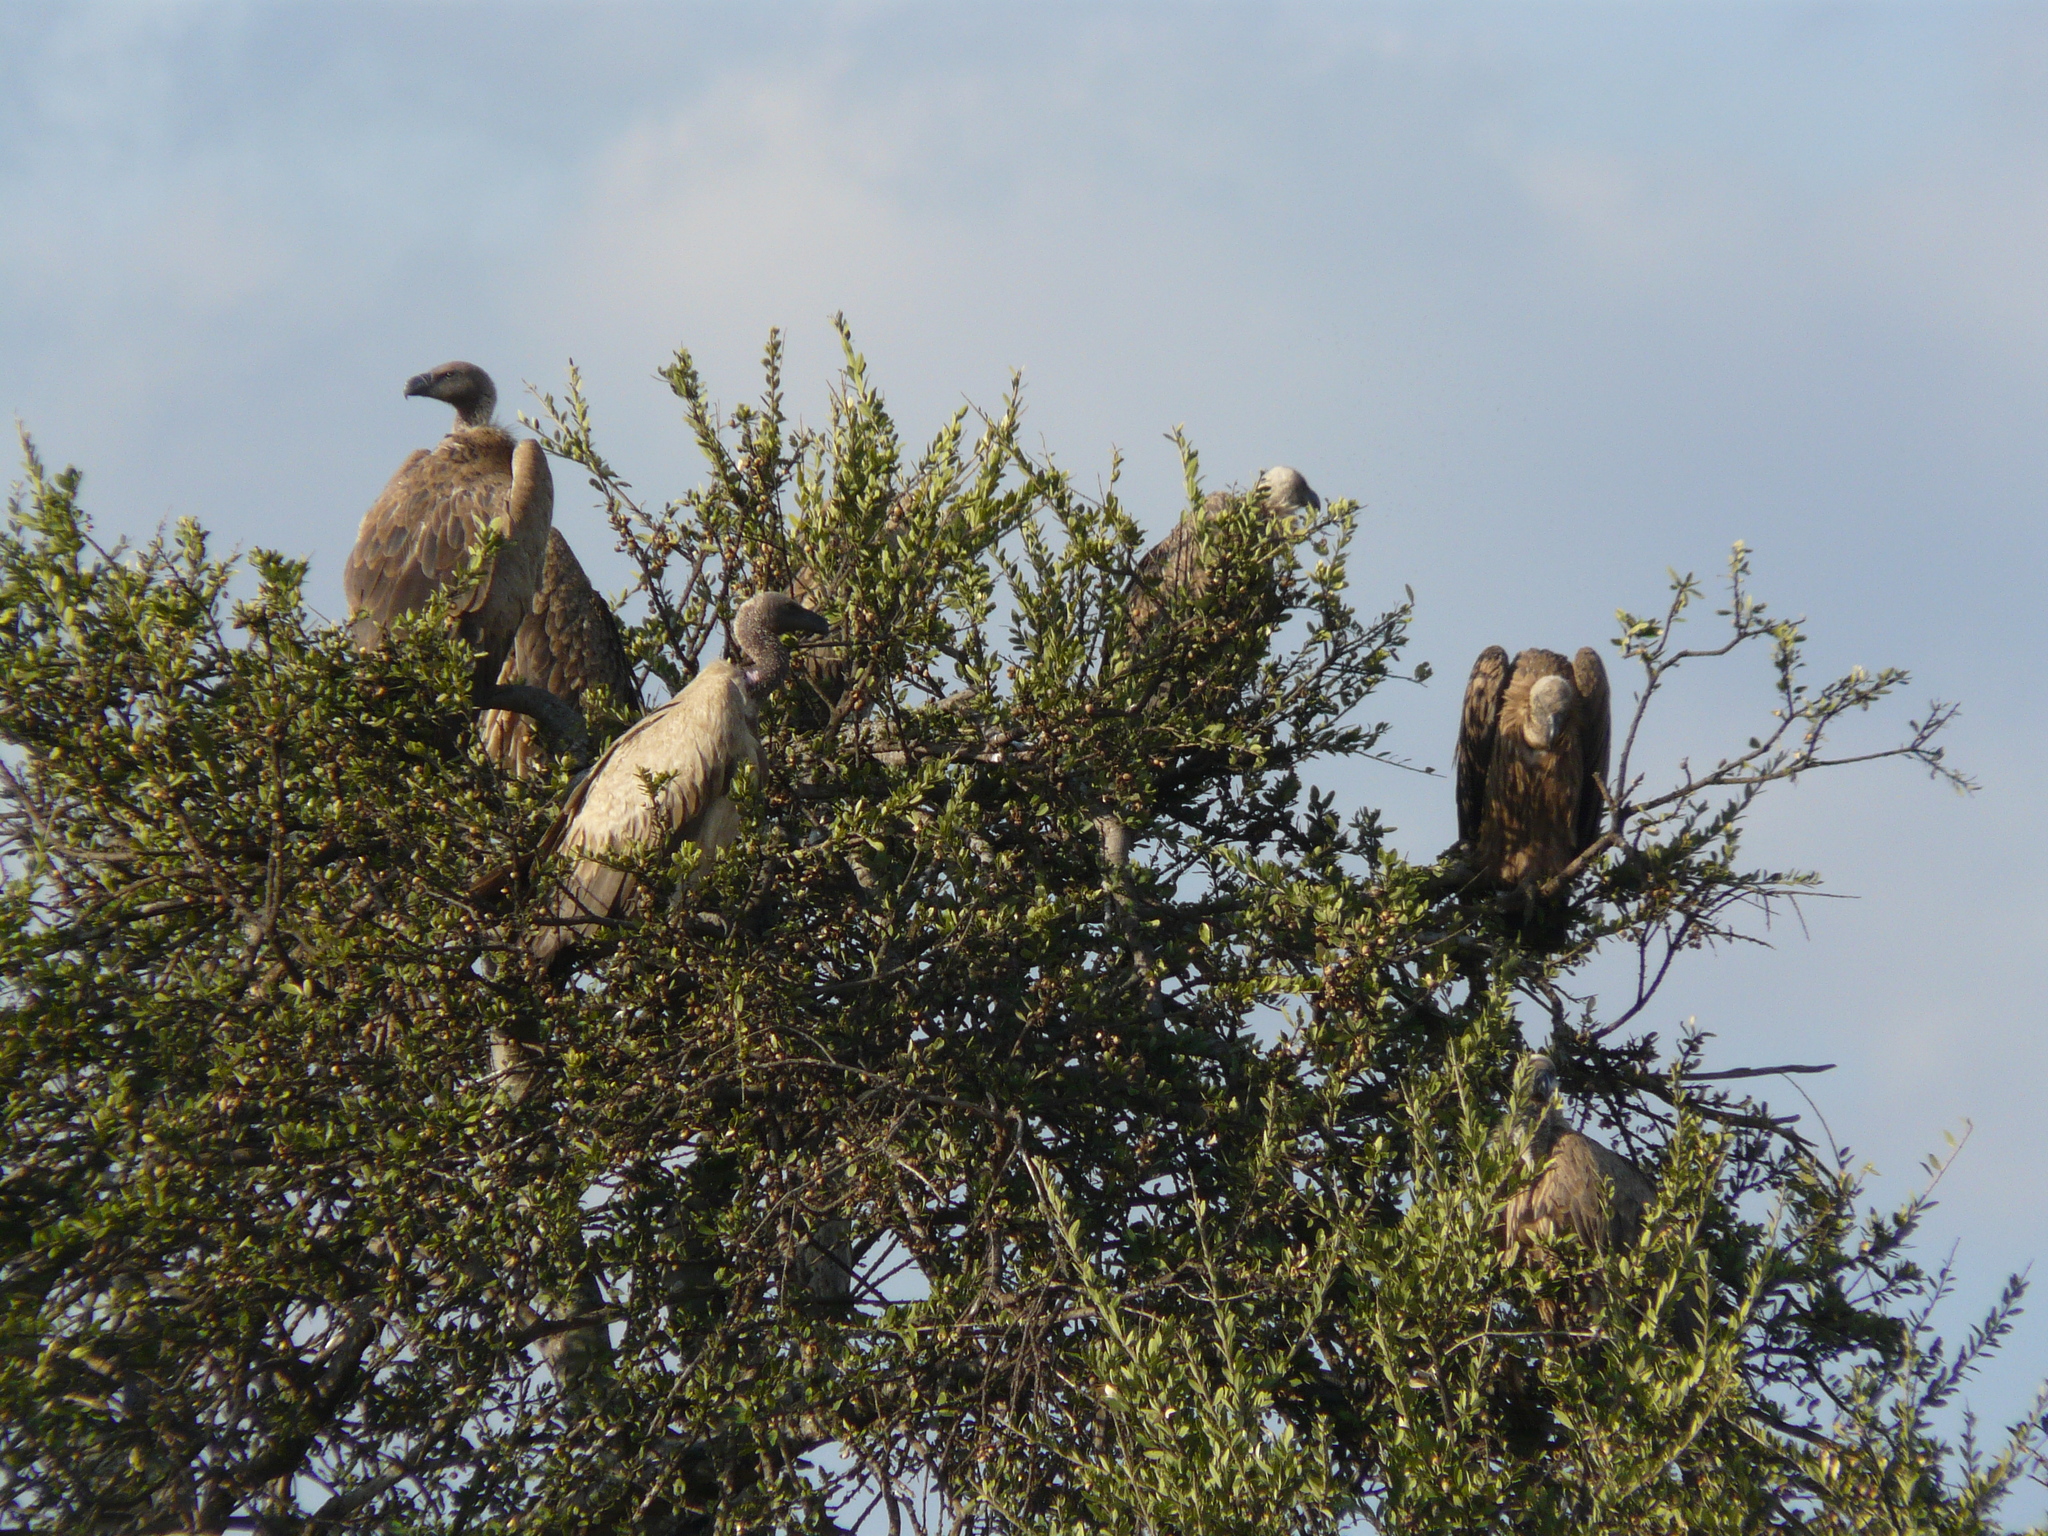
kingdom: Animalia
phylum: Chordata
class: Aves
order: Accipitriformes
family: Accipitridae
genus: Gyps
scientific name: Gyps africanus
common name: White-backed vulture
